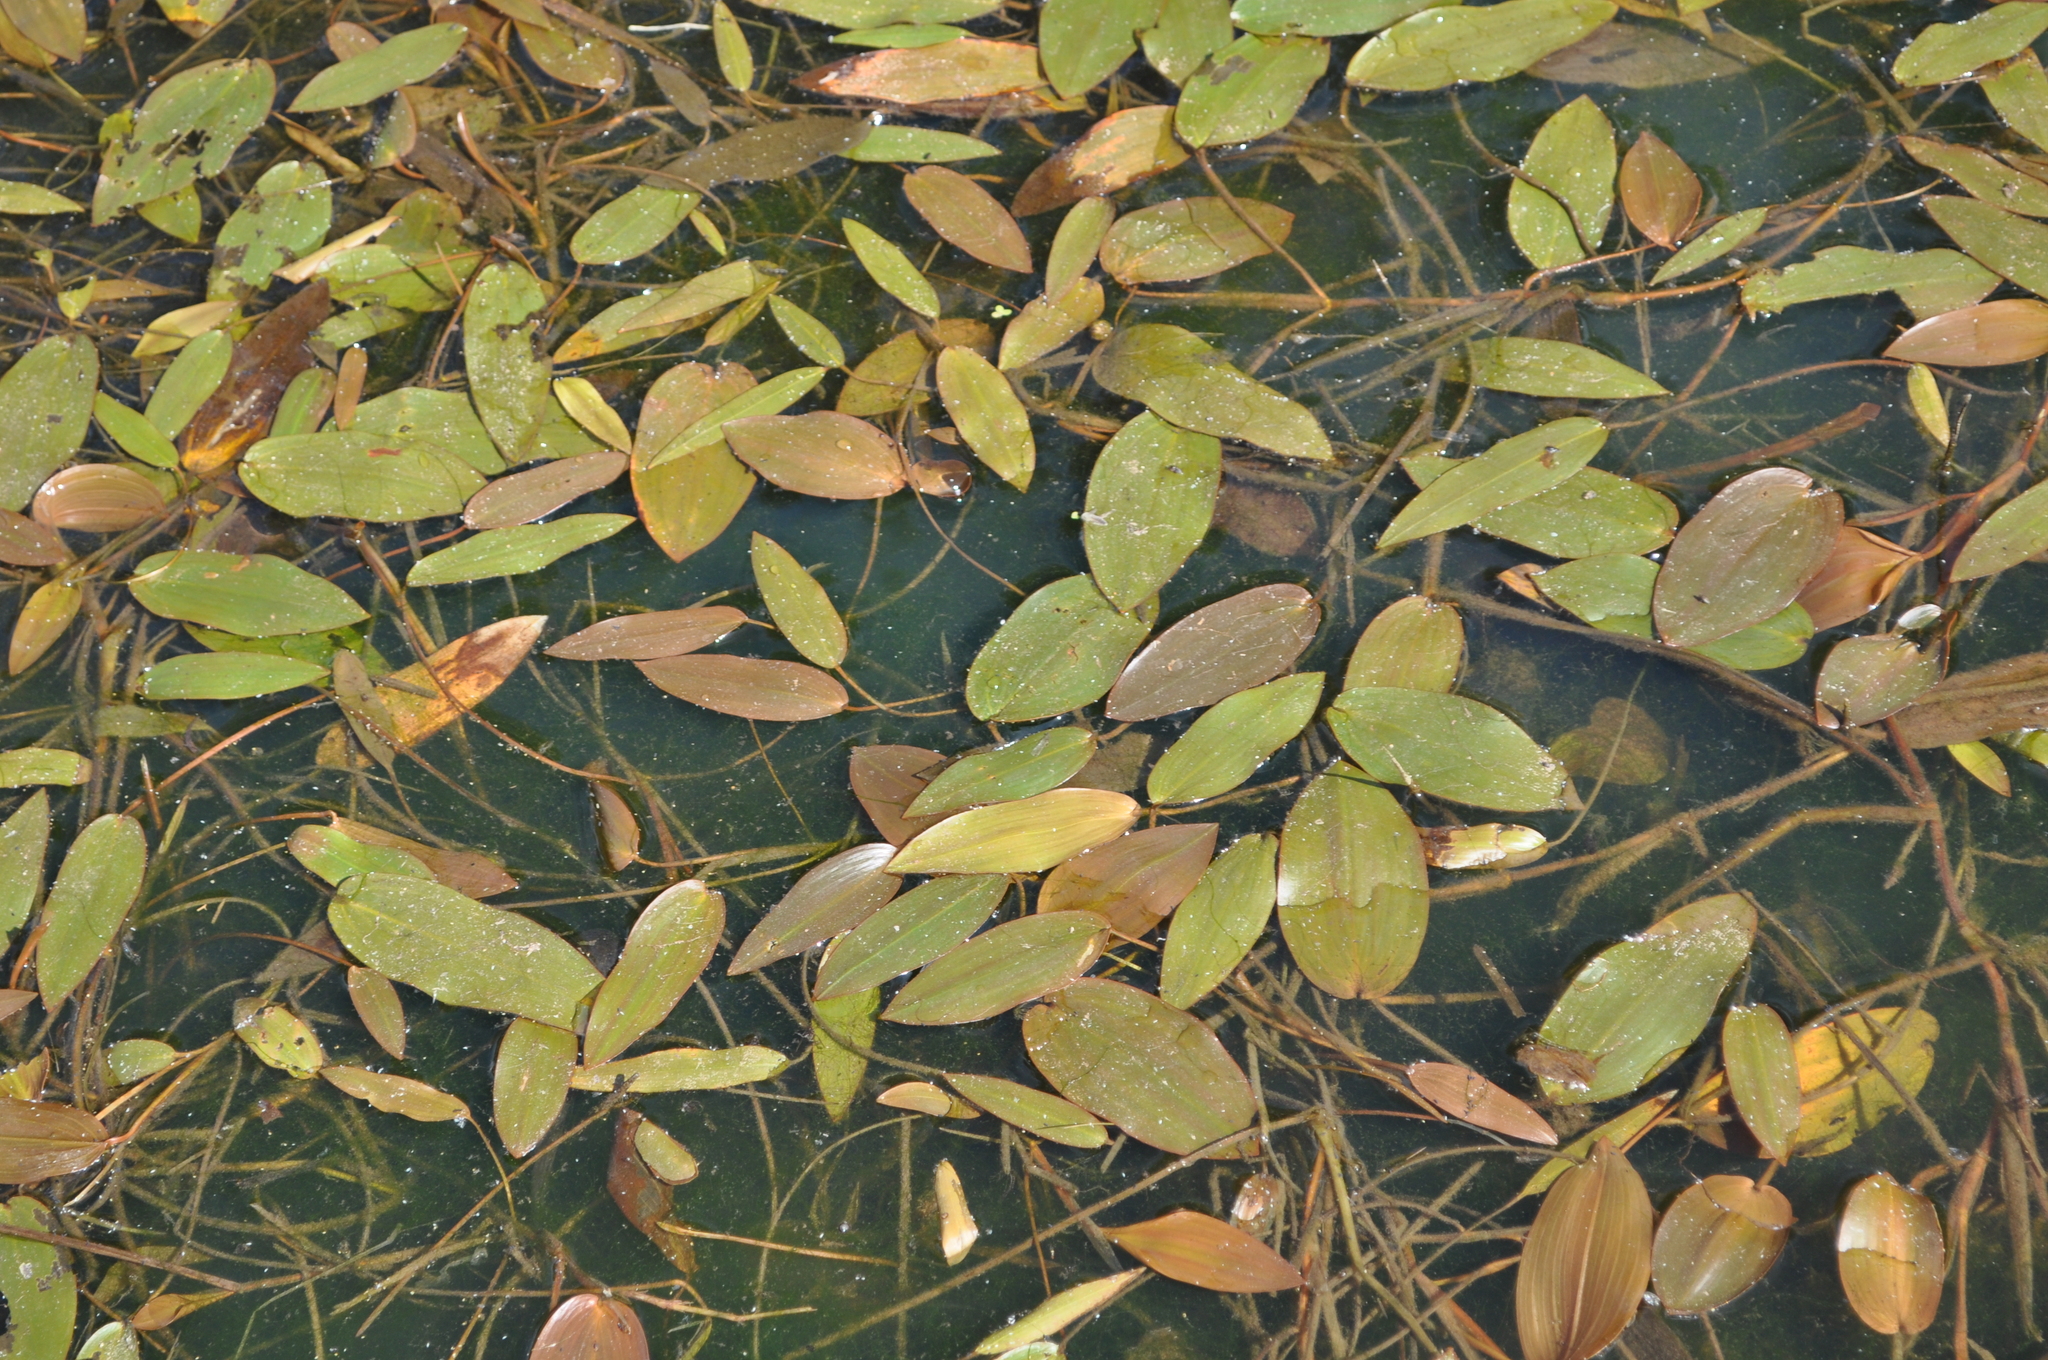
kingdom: Plantae
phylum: Tracheophyta
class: Liliopsida
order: Alismatales
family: Potamogetonaceae
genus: Potamogeton
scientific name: Potamogeton natans
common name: Broad-leaved pondweed
